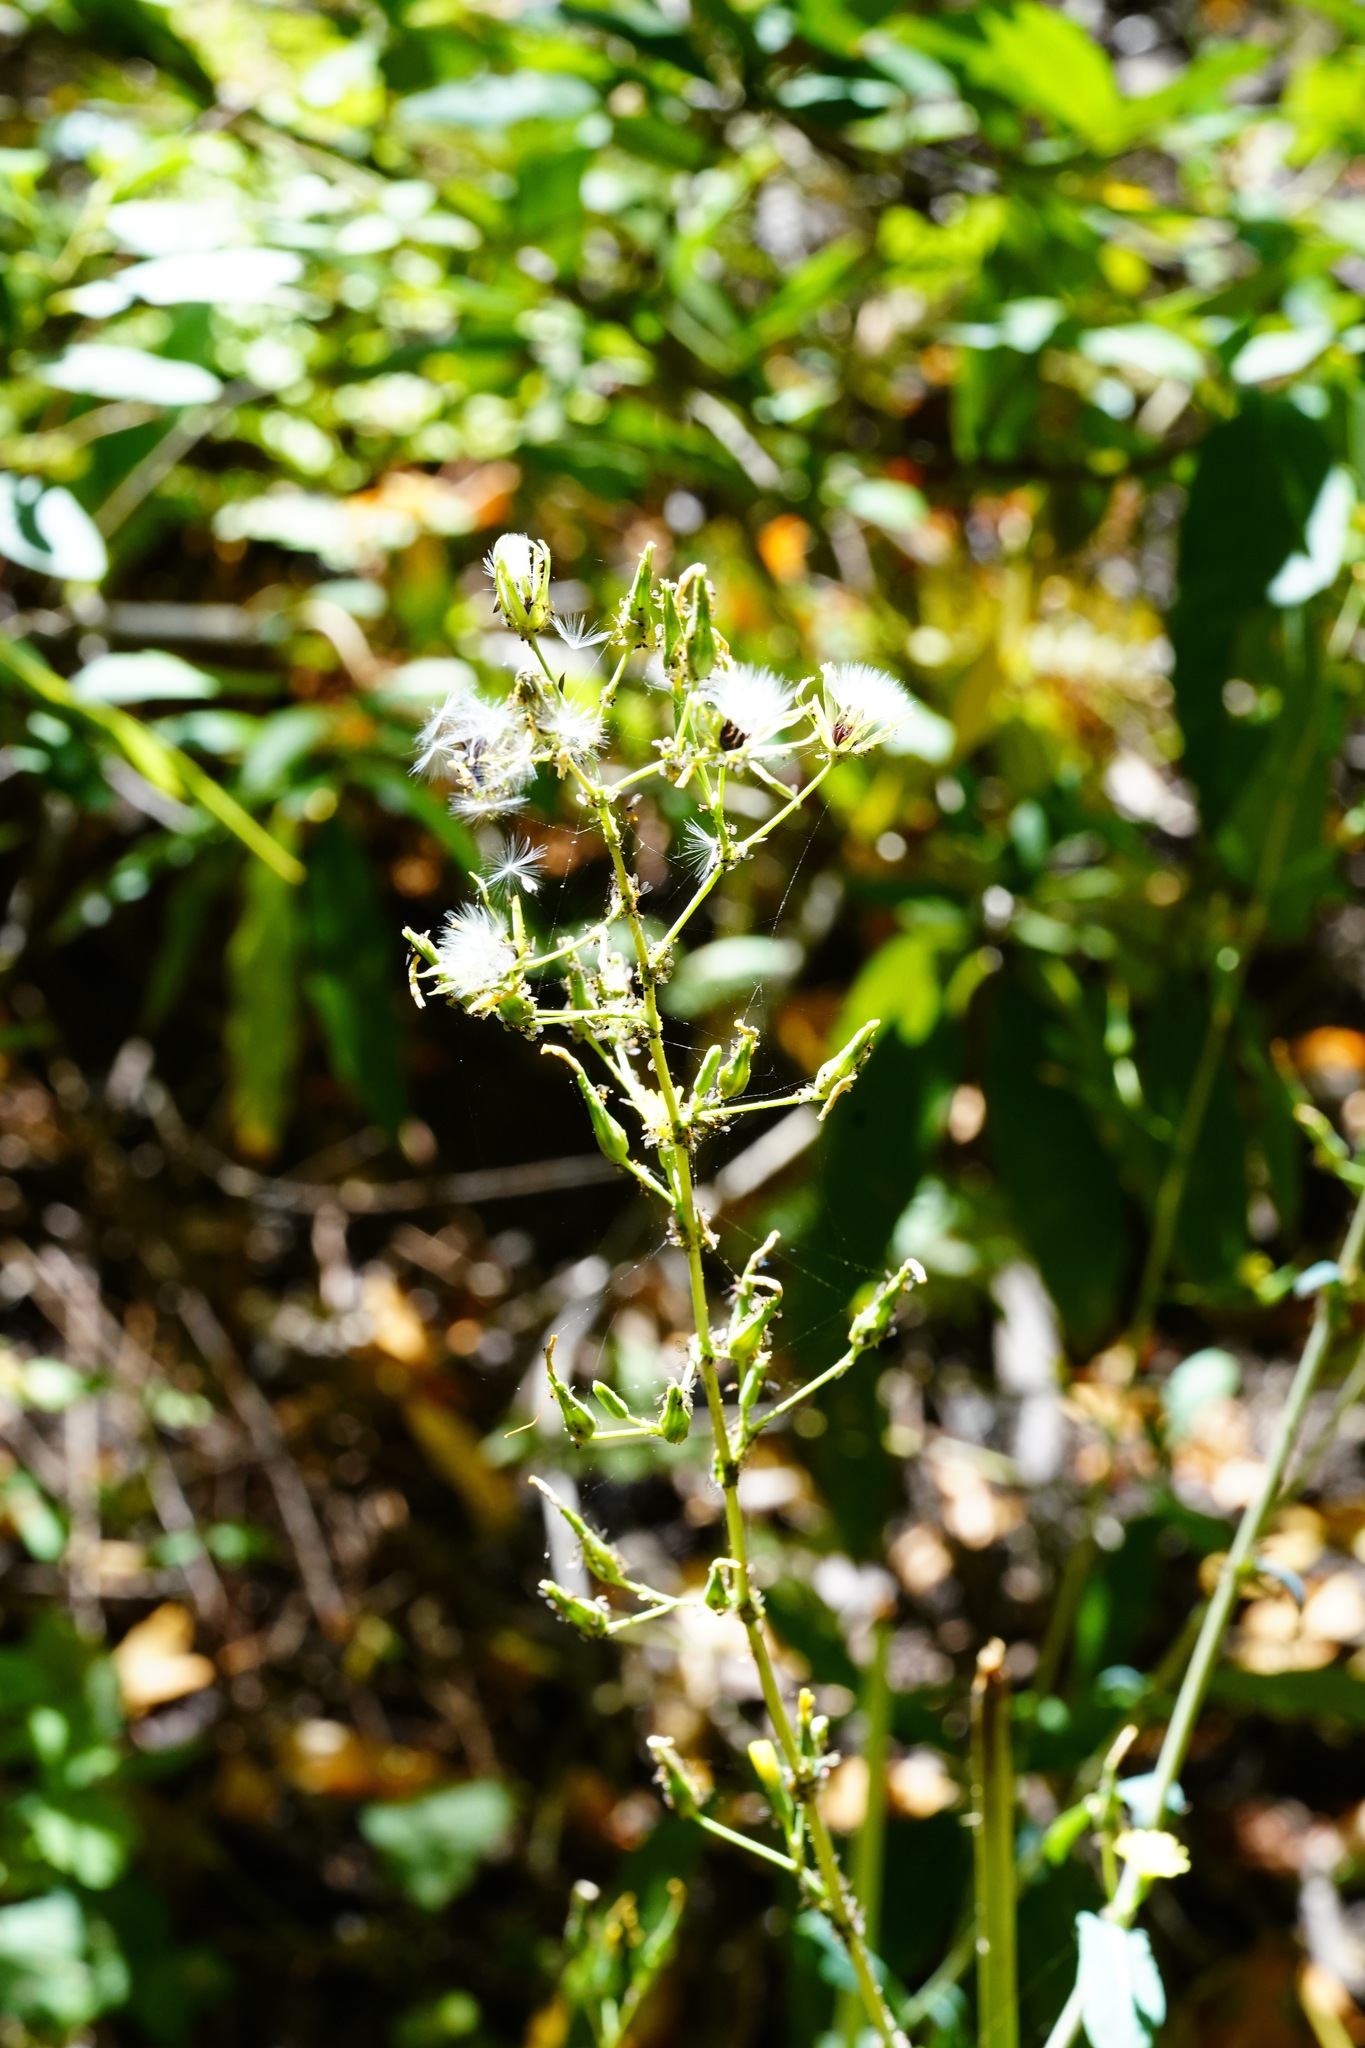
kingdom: Plantae
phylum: Tracheophyta
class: Magnoliopsida
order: Asterales
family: Asteraceae
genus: Lactuca
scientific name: Lactuca virosa
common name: Great lettuce
